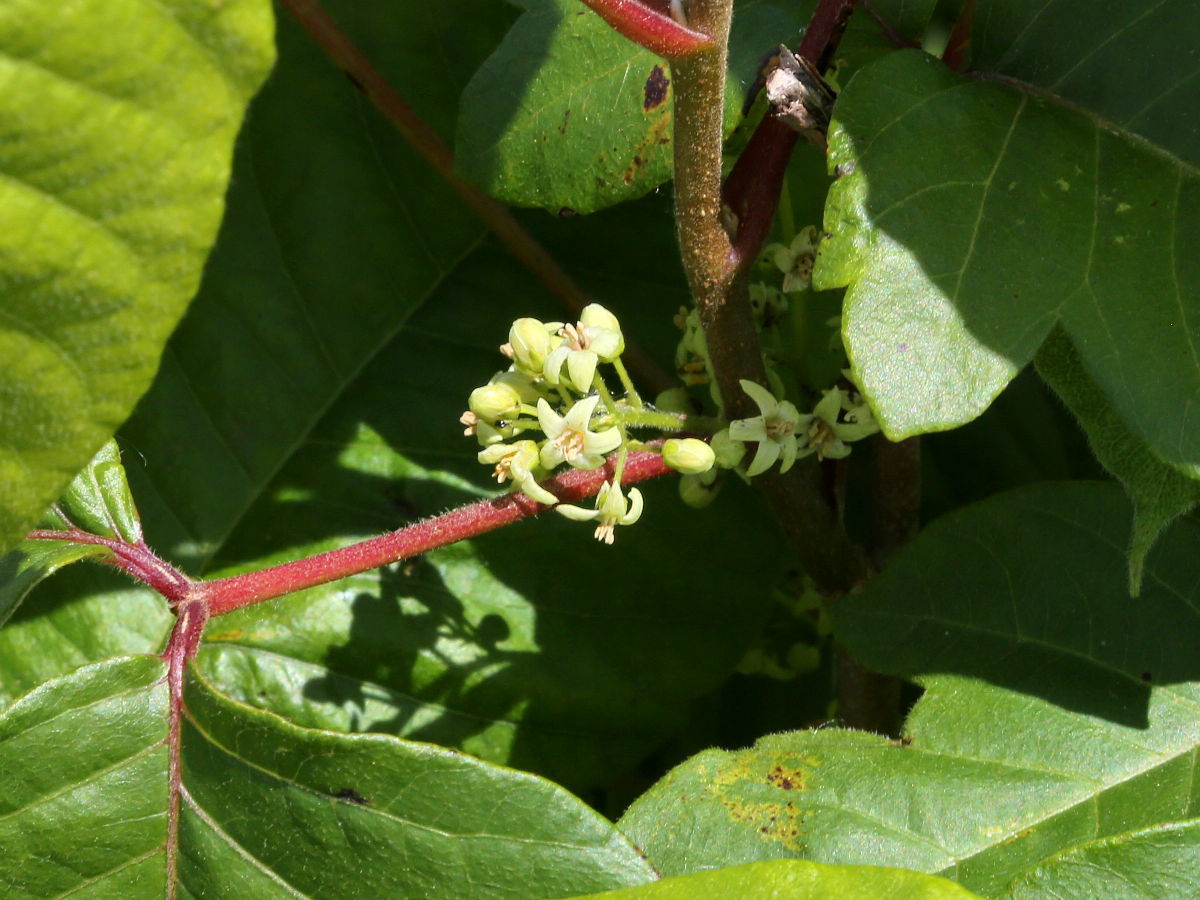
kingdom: Plantae
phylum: Tracheophyta
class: Magnoliopsida
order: Sapindales
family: Anacardiaceae
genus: Toxicodendron
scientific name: Toxicodendron radicans
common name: Poison ivy
